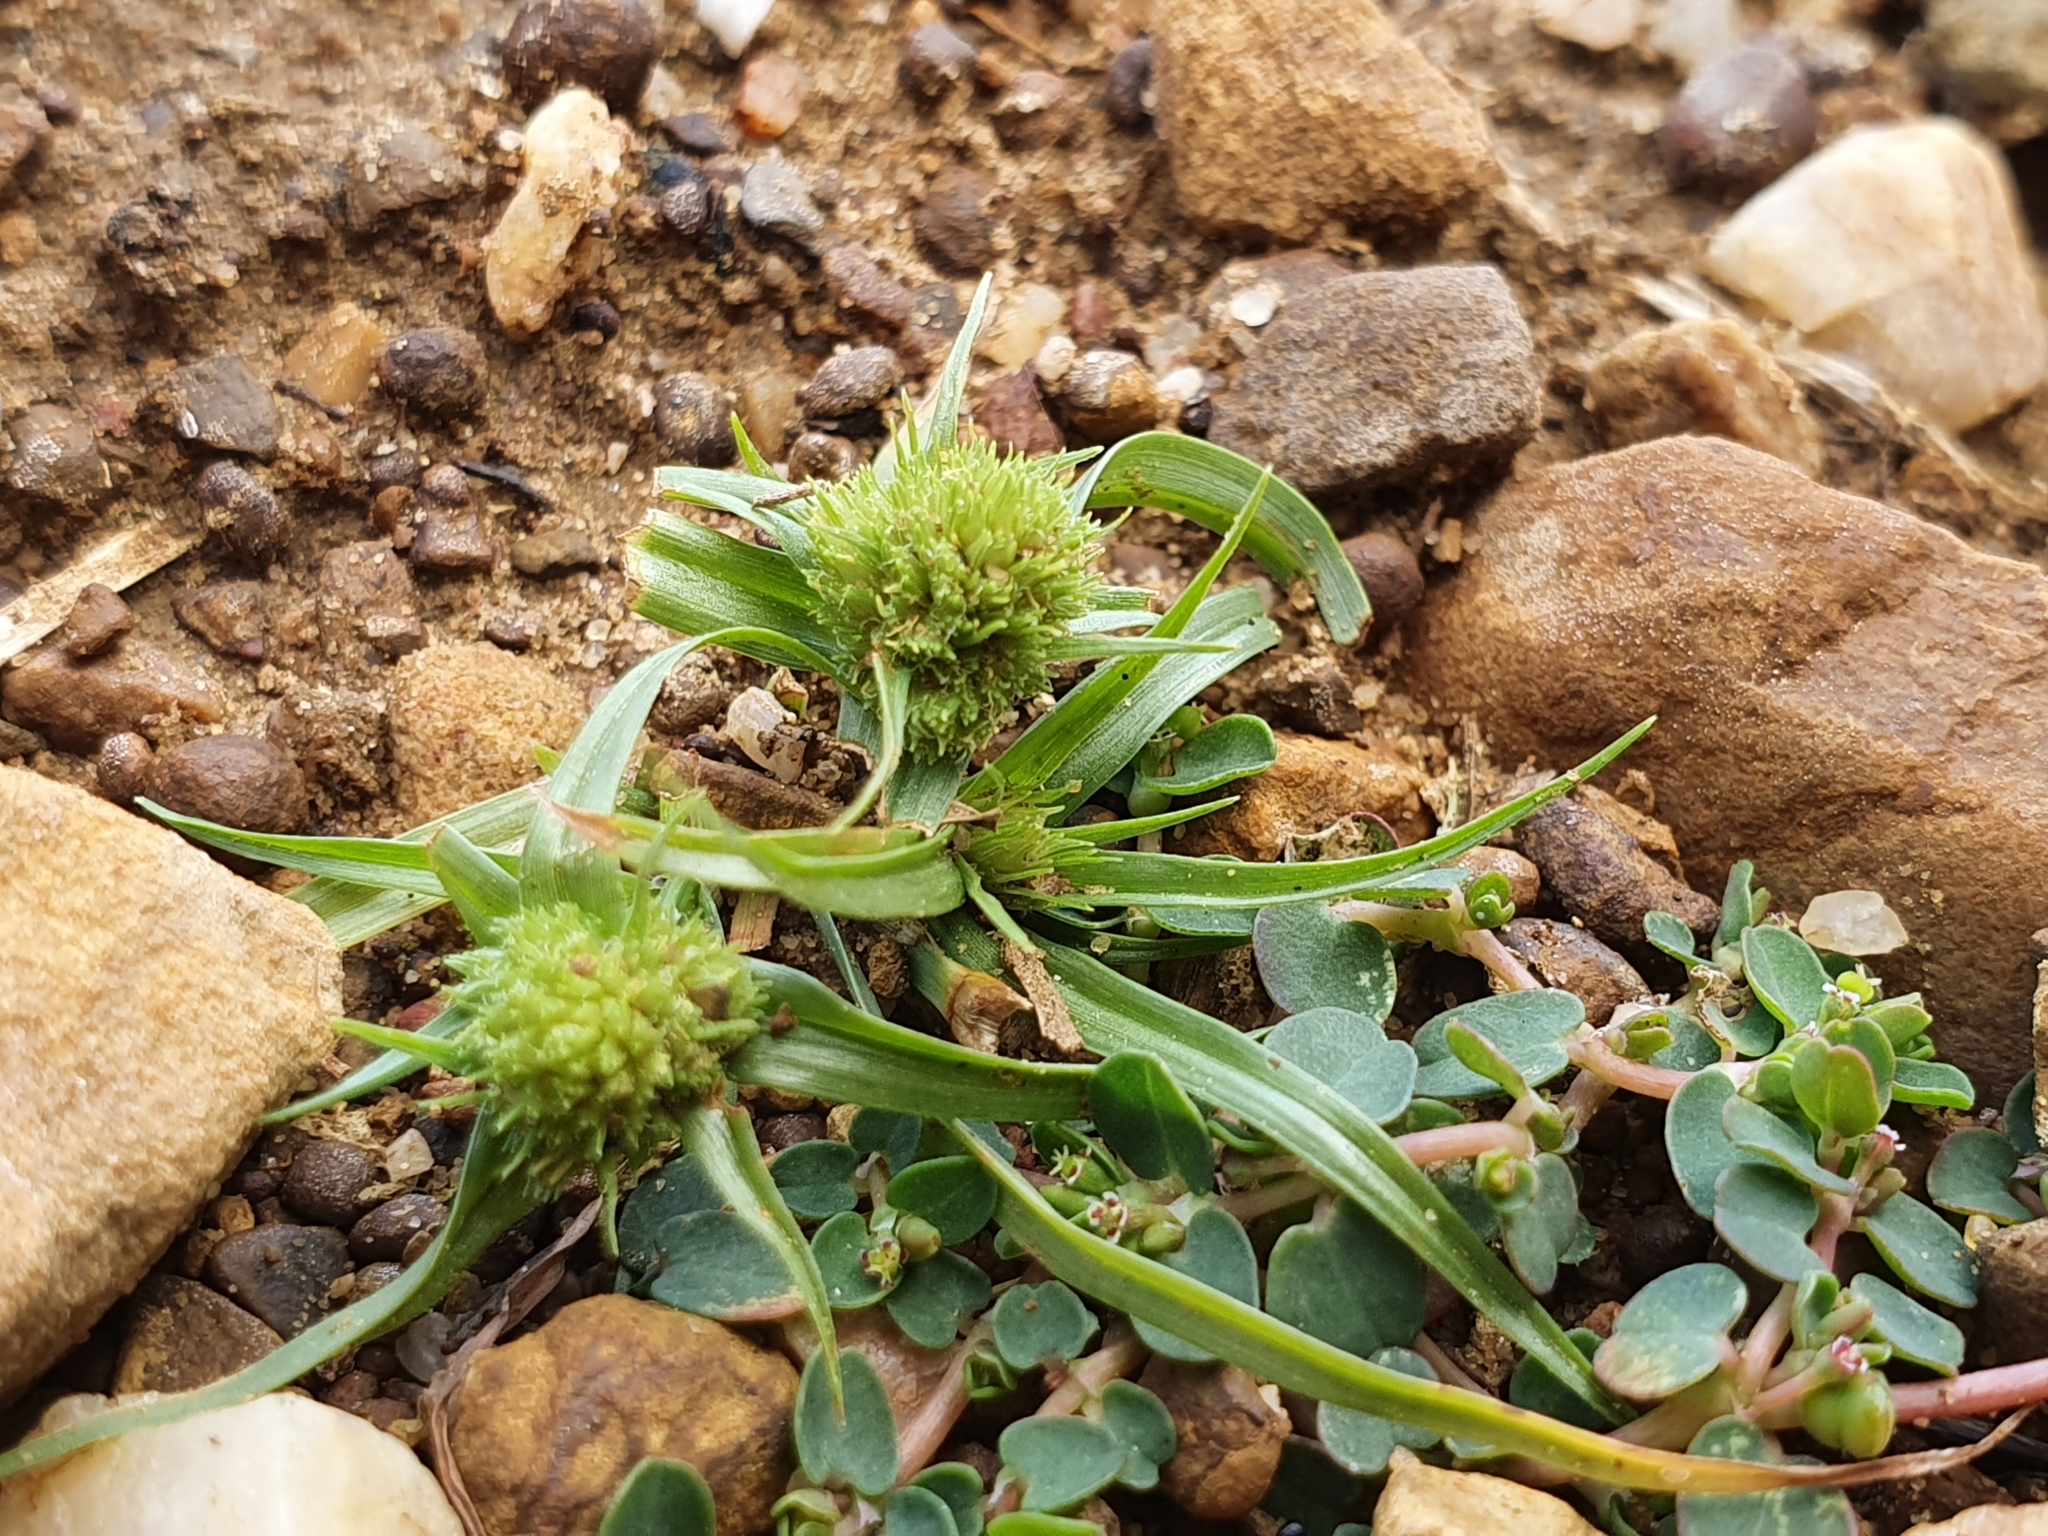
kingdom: Plantae
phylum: Tracheophyta
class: Liliopsida
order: Poales
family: Cyperaceae
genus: Cyperus
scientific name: Cyperus michelianus
